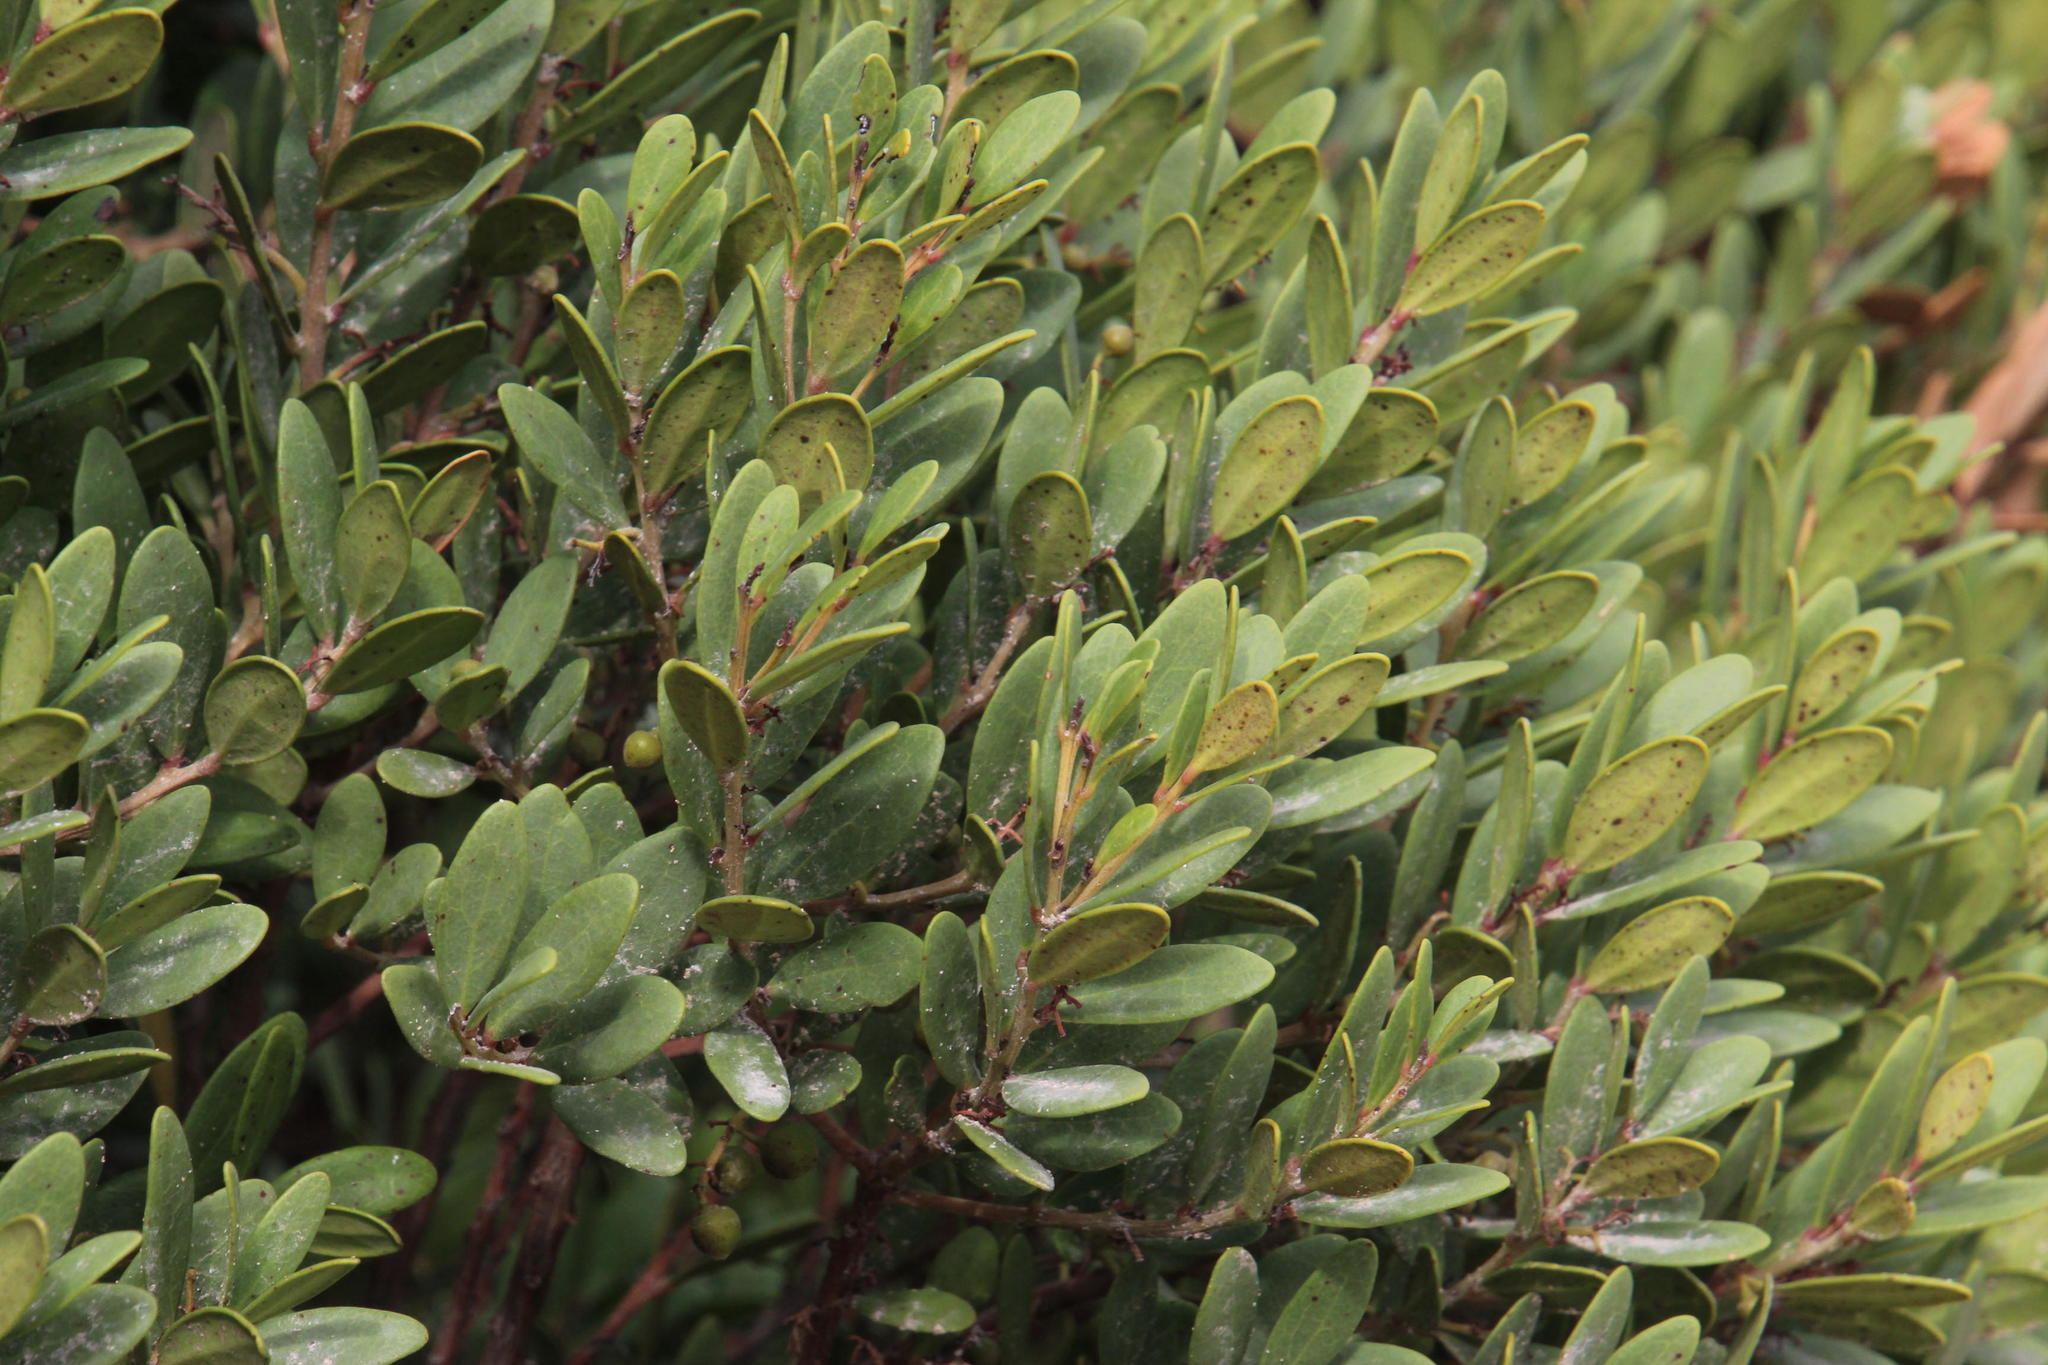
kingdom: Plantae
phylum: Tracheophyta
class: Magnoliopsida
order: Ericales
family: Ebenaceae
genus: Euclea
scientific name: Euclea racemosa
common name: Dune guarri
